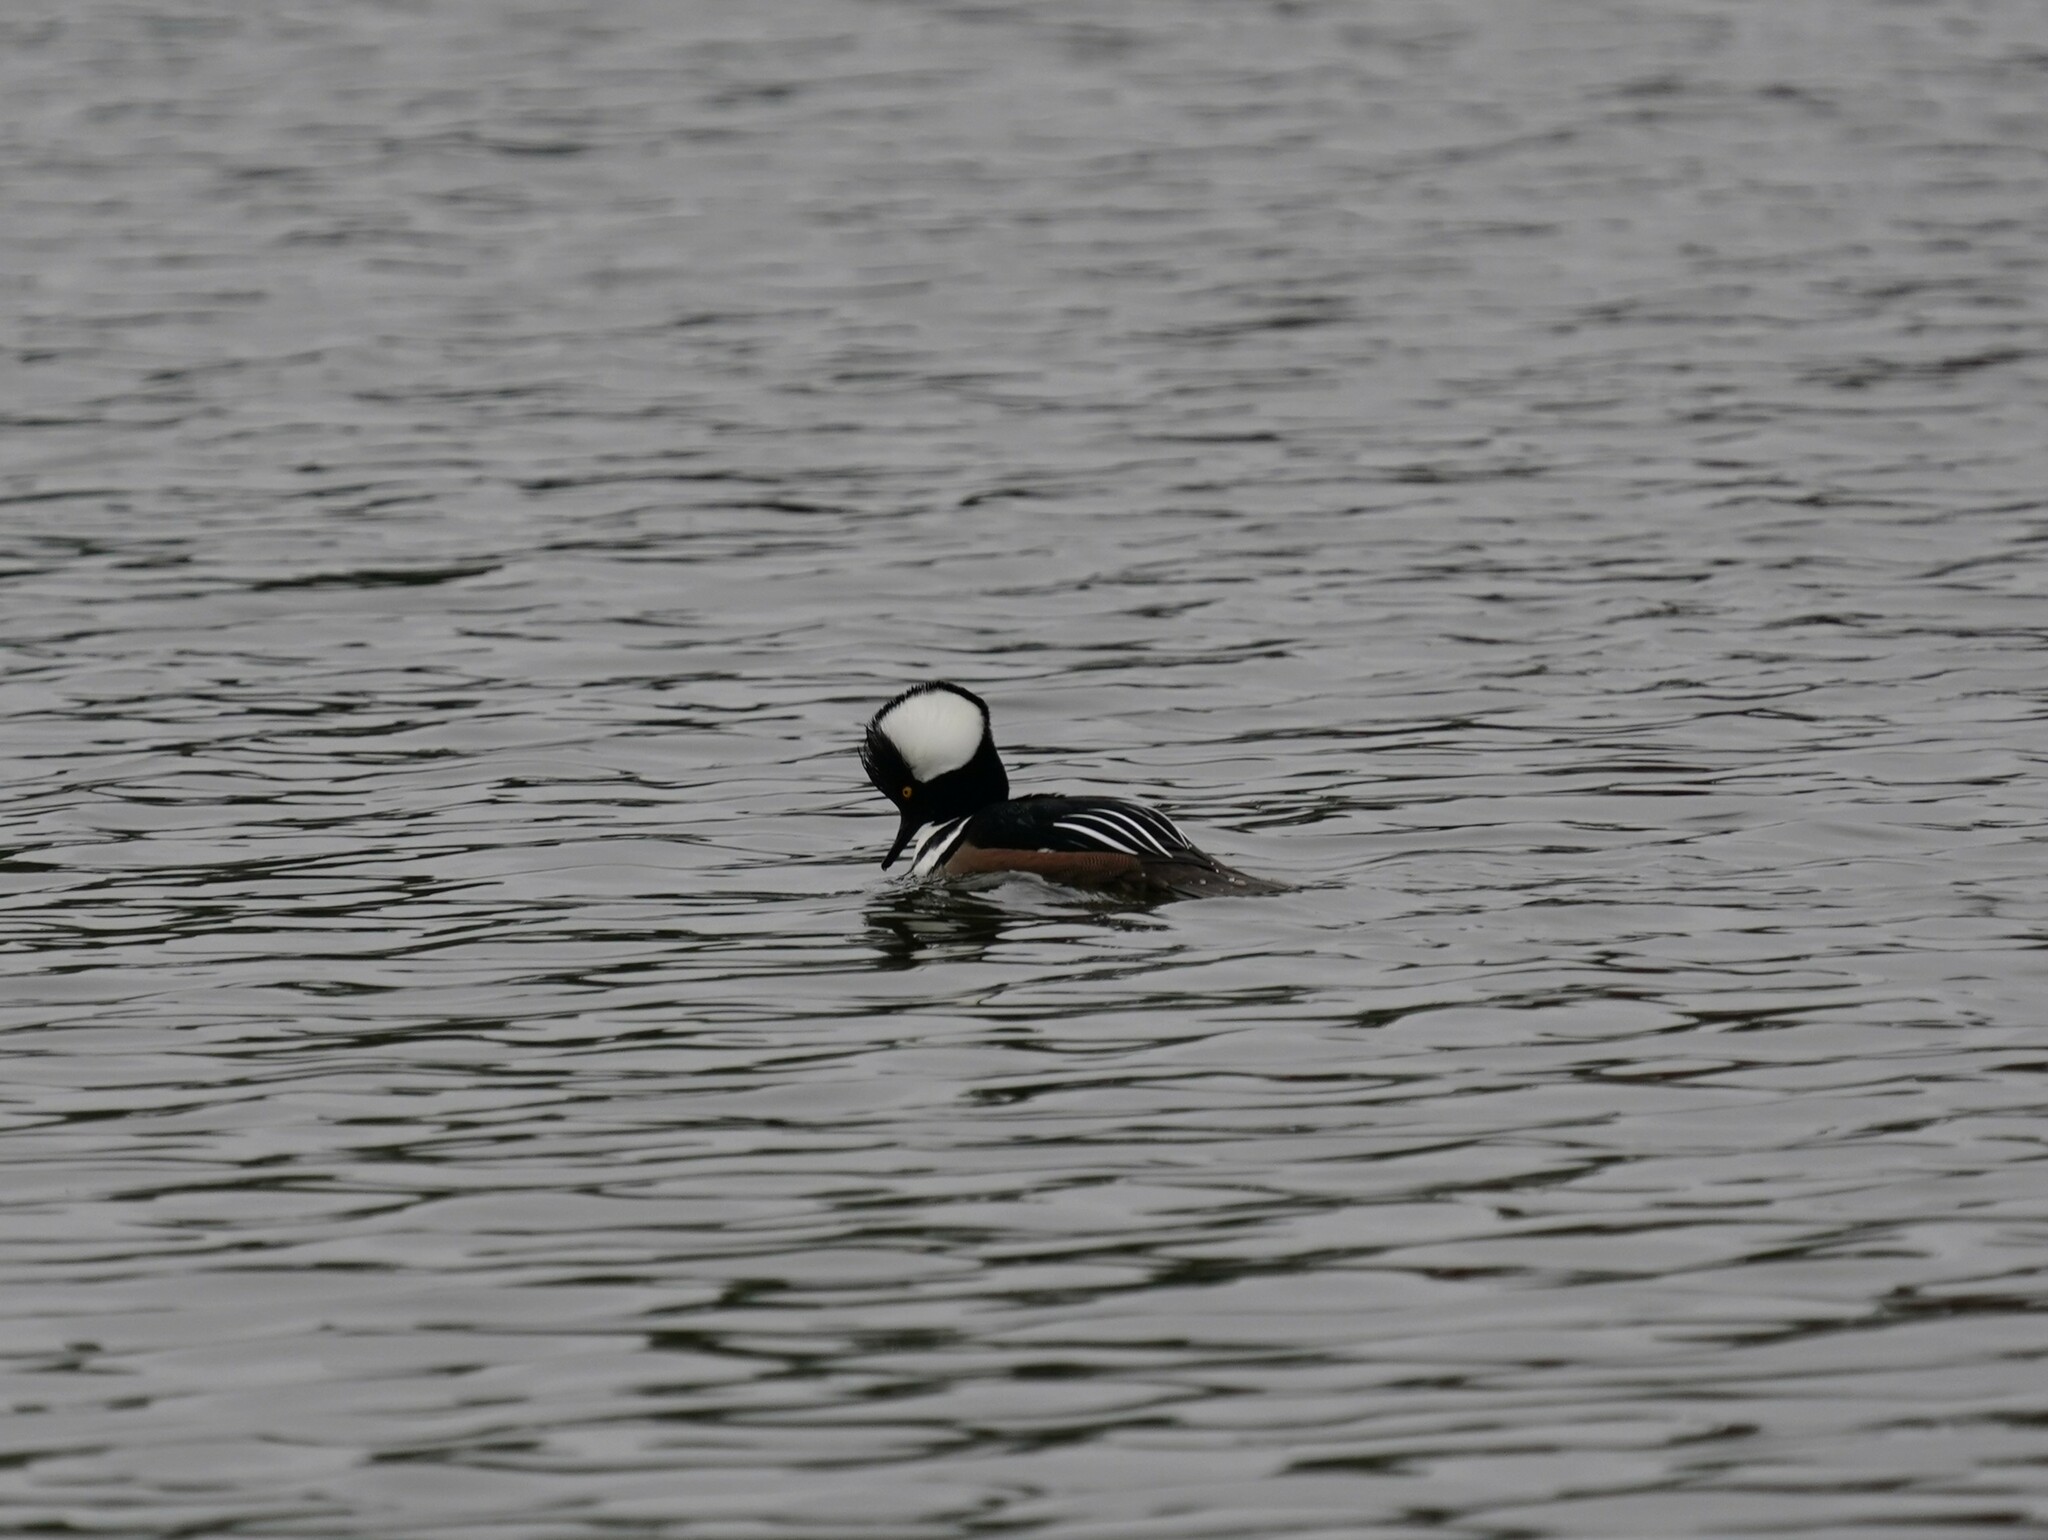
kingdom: Animalia
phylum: Chordata
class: Aves
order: Anseriformes
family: Anatidae
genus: Lophodytes
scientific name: Lophodytes cucullatus
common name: Hooded merganser
